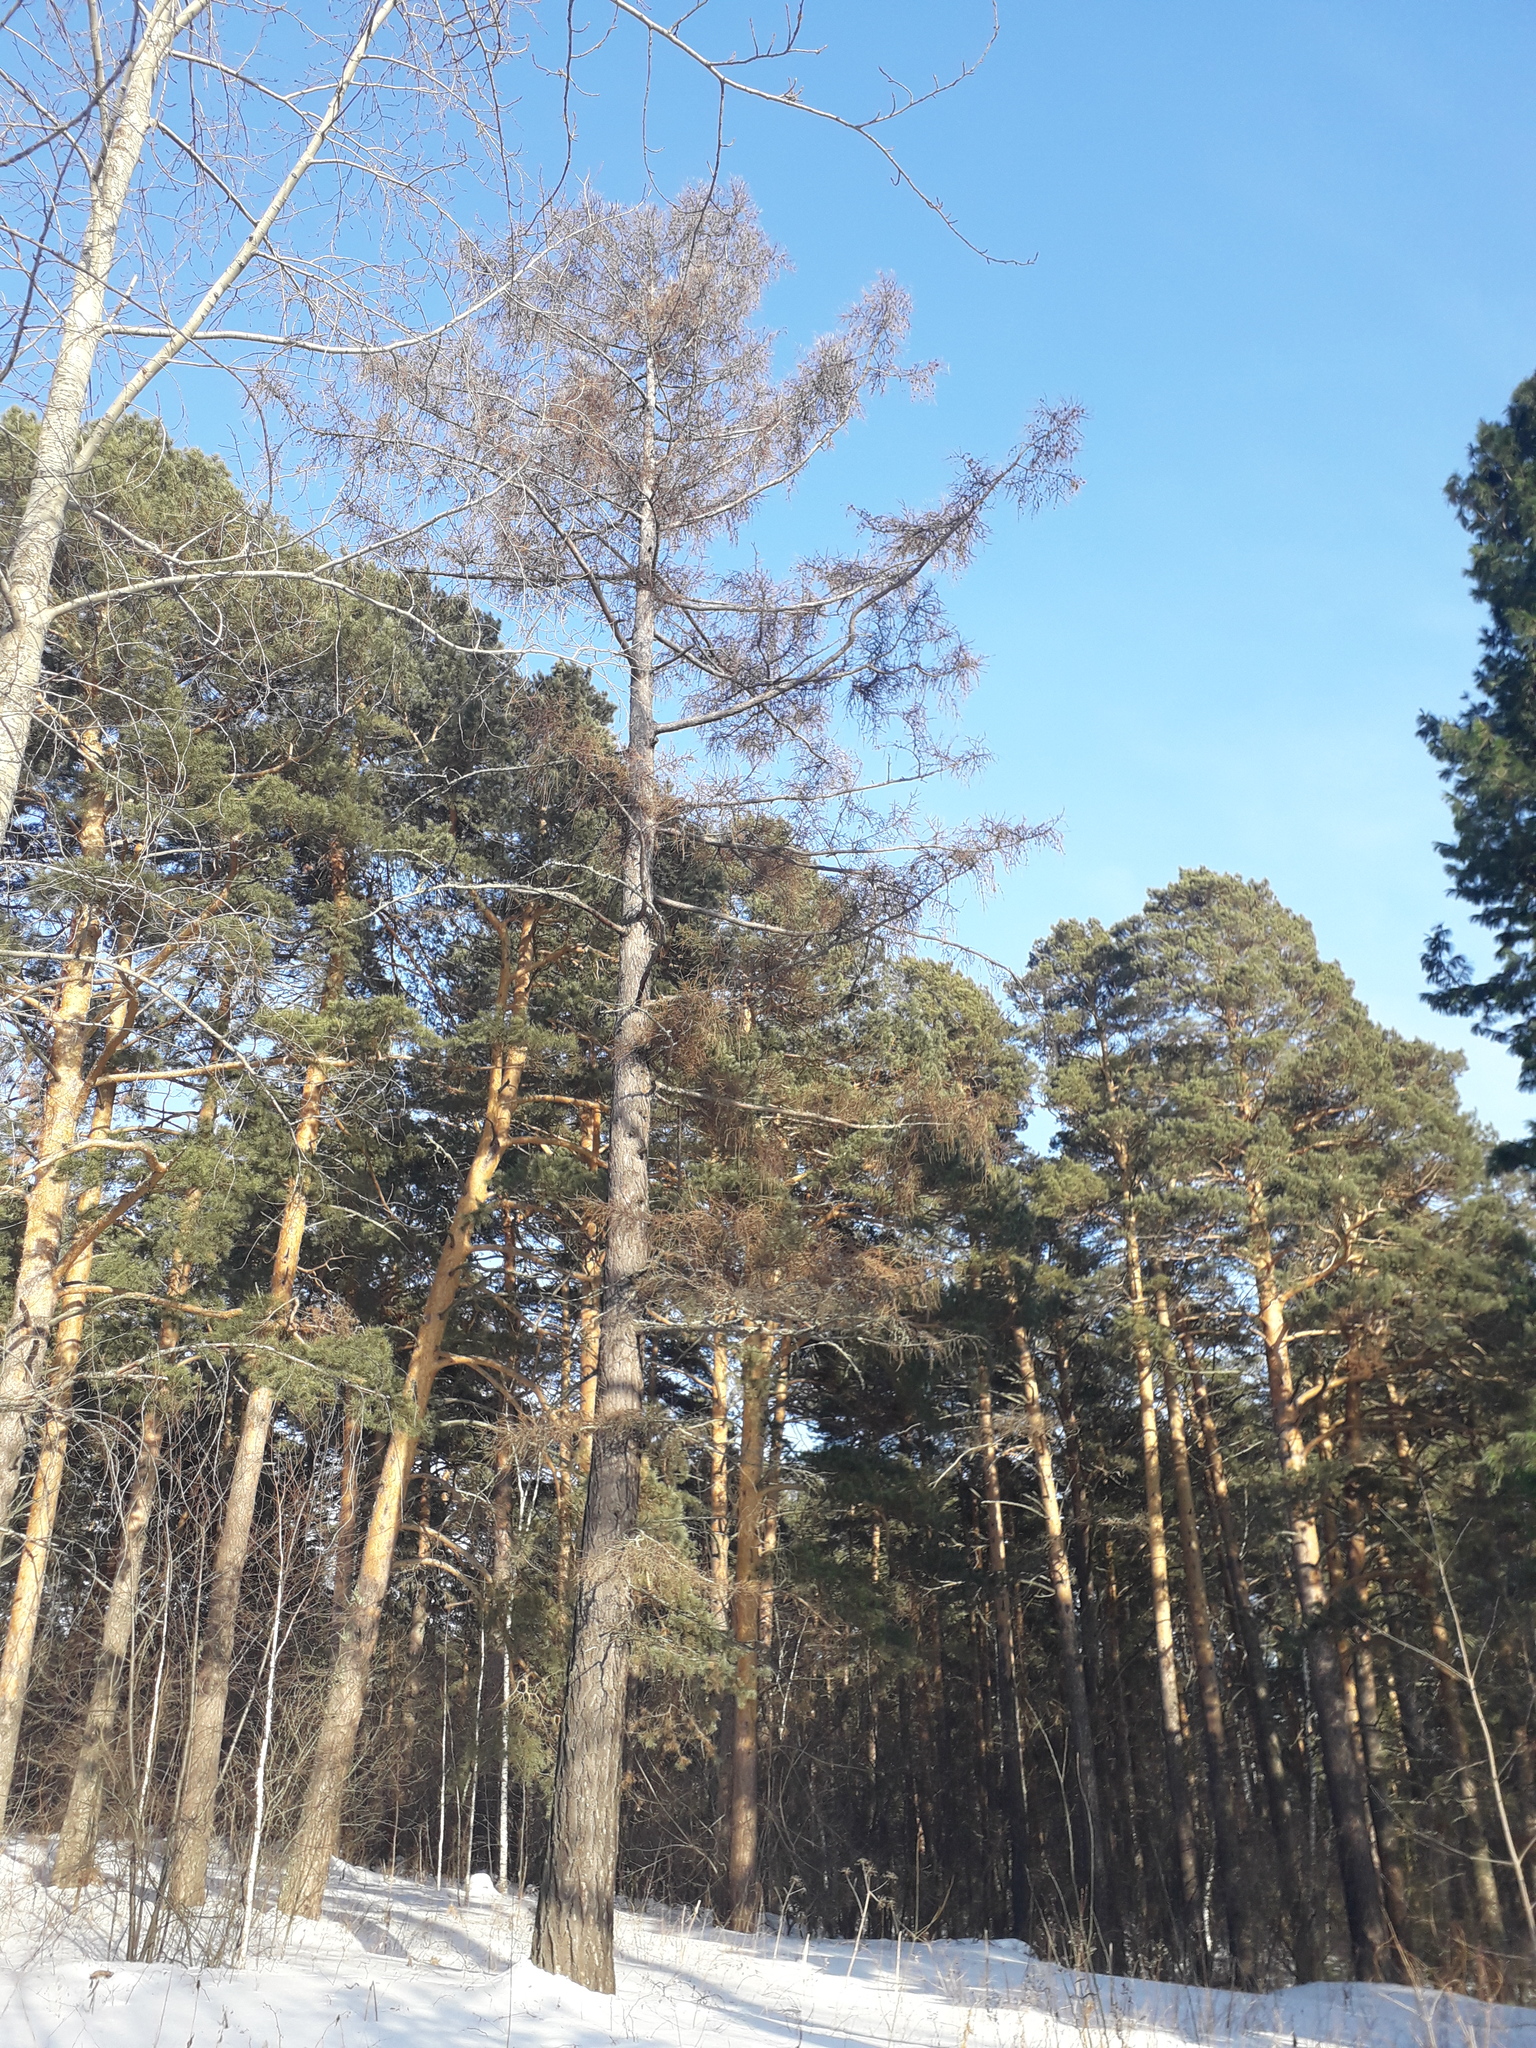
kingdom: Plantae
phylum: Tracheophyta
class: Pinopsida
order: Pinales
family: Pinaceae
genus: Larix
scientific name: Larix sibirica
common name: Siberian larch
